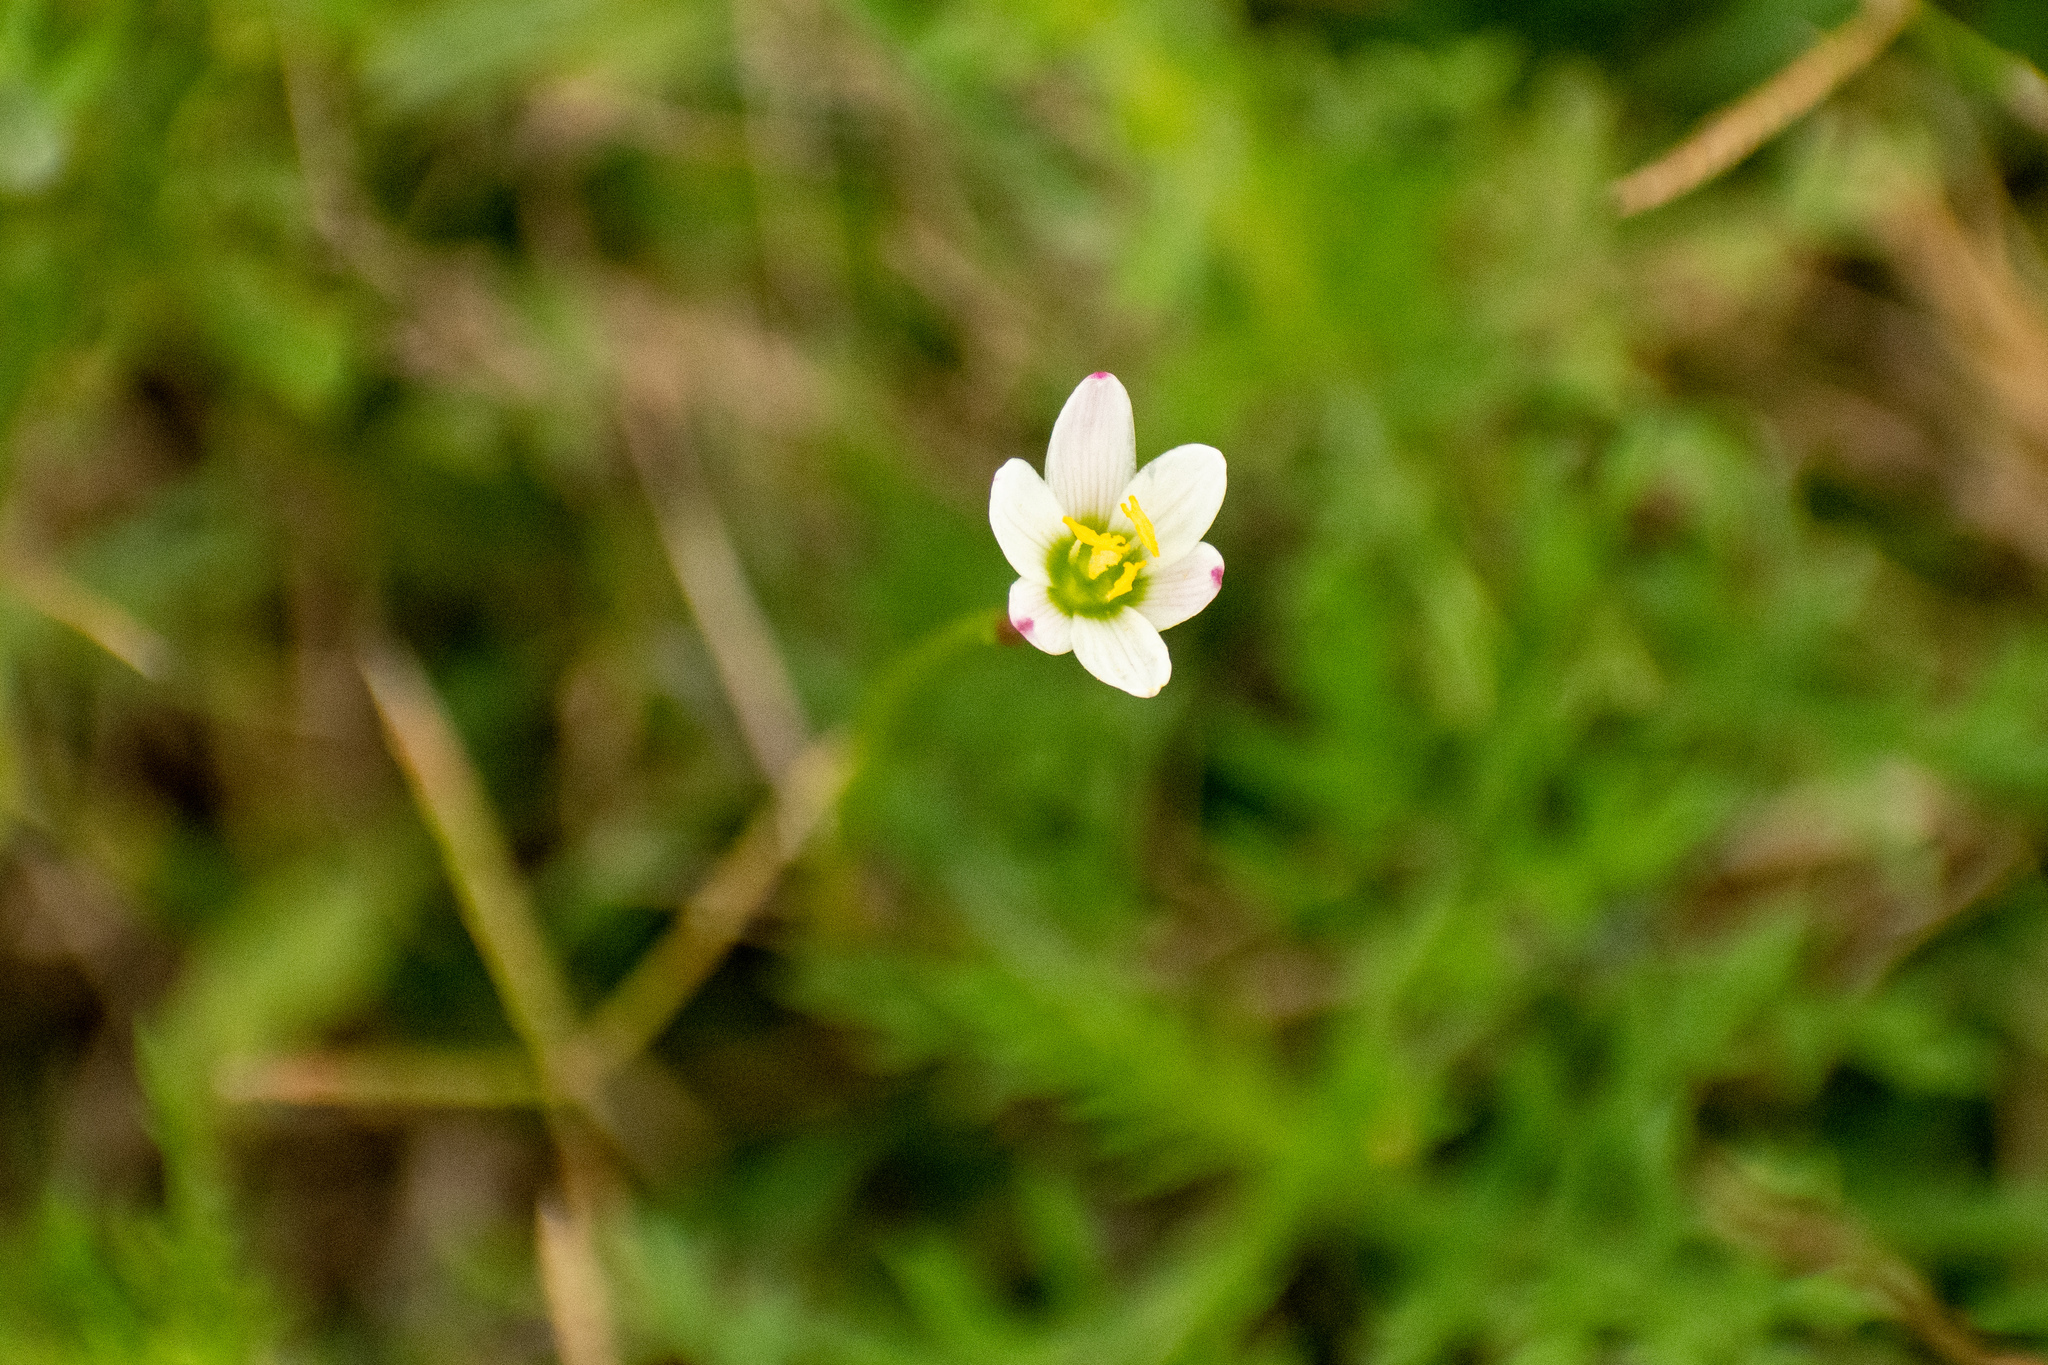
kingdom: Plantae
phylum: Tracheophyta
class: Liliopsida
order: Asparagales
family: Amaryllidaceae
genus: Zephyranthes
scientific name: Zephyranthes minima
